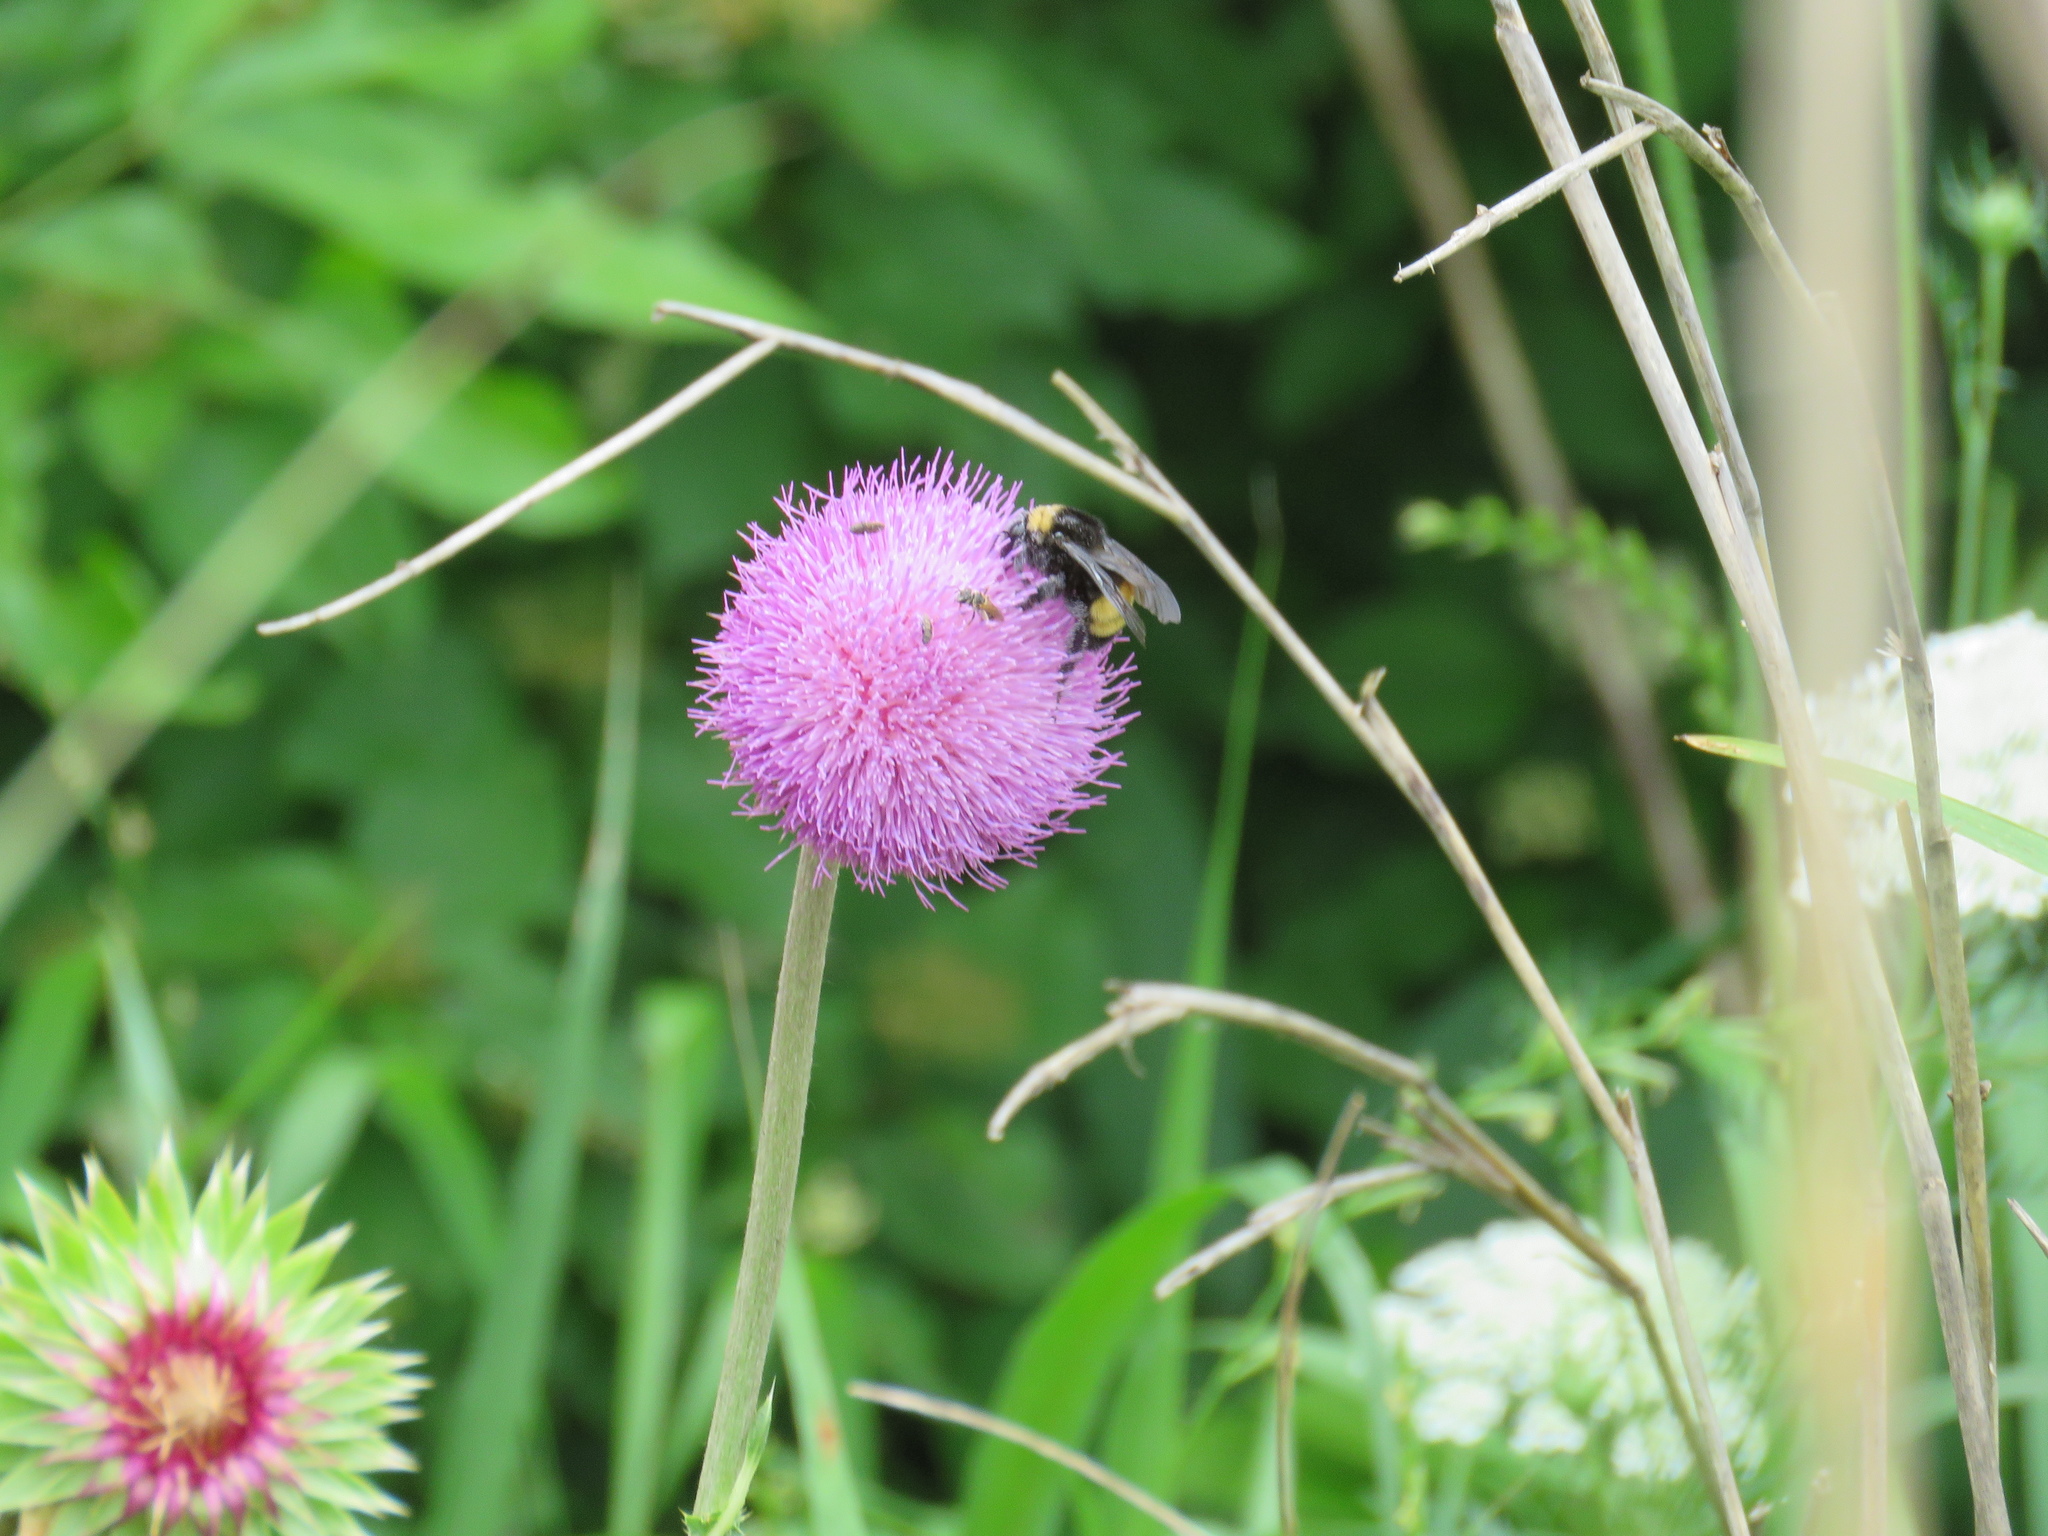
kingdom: Animalia
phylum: Arthropoda
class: Insecta
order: Hymenoptera
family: Apidae
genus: Bombus
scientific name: Bombus pensylvanicus
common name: Bumble bee
